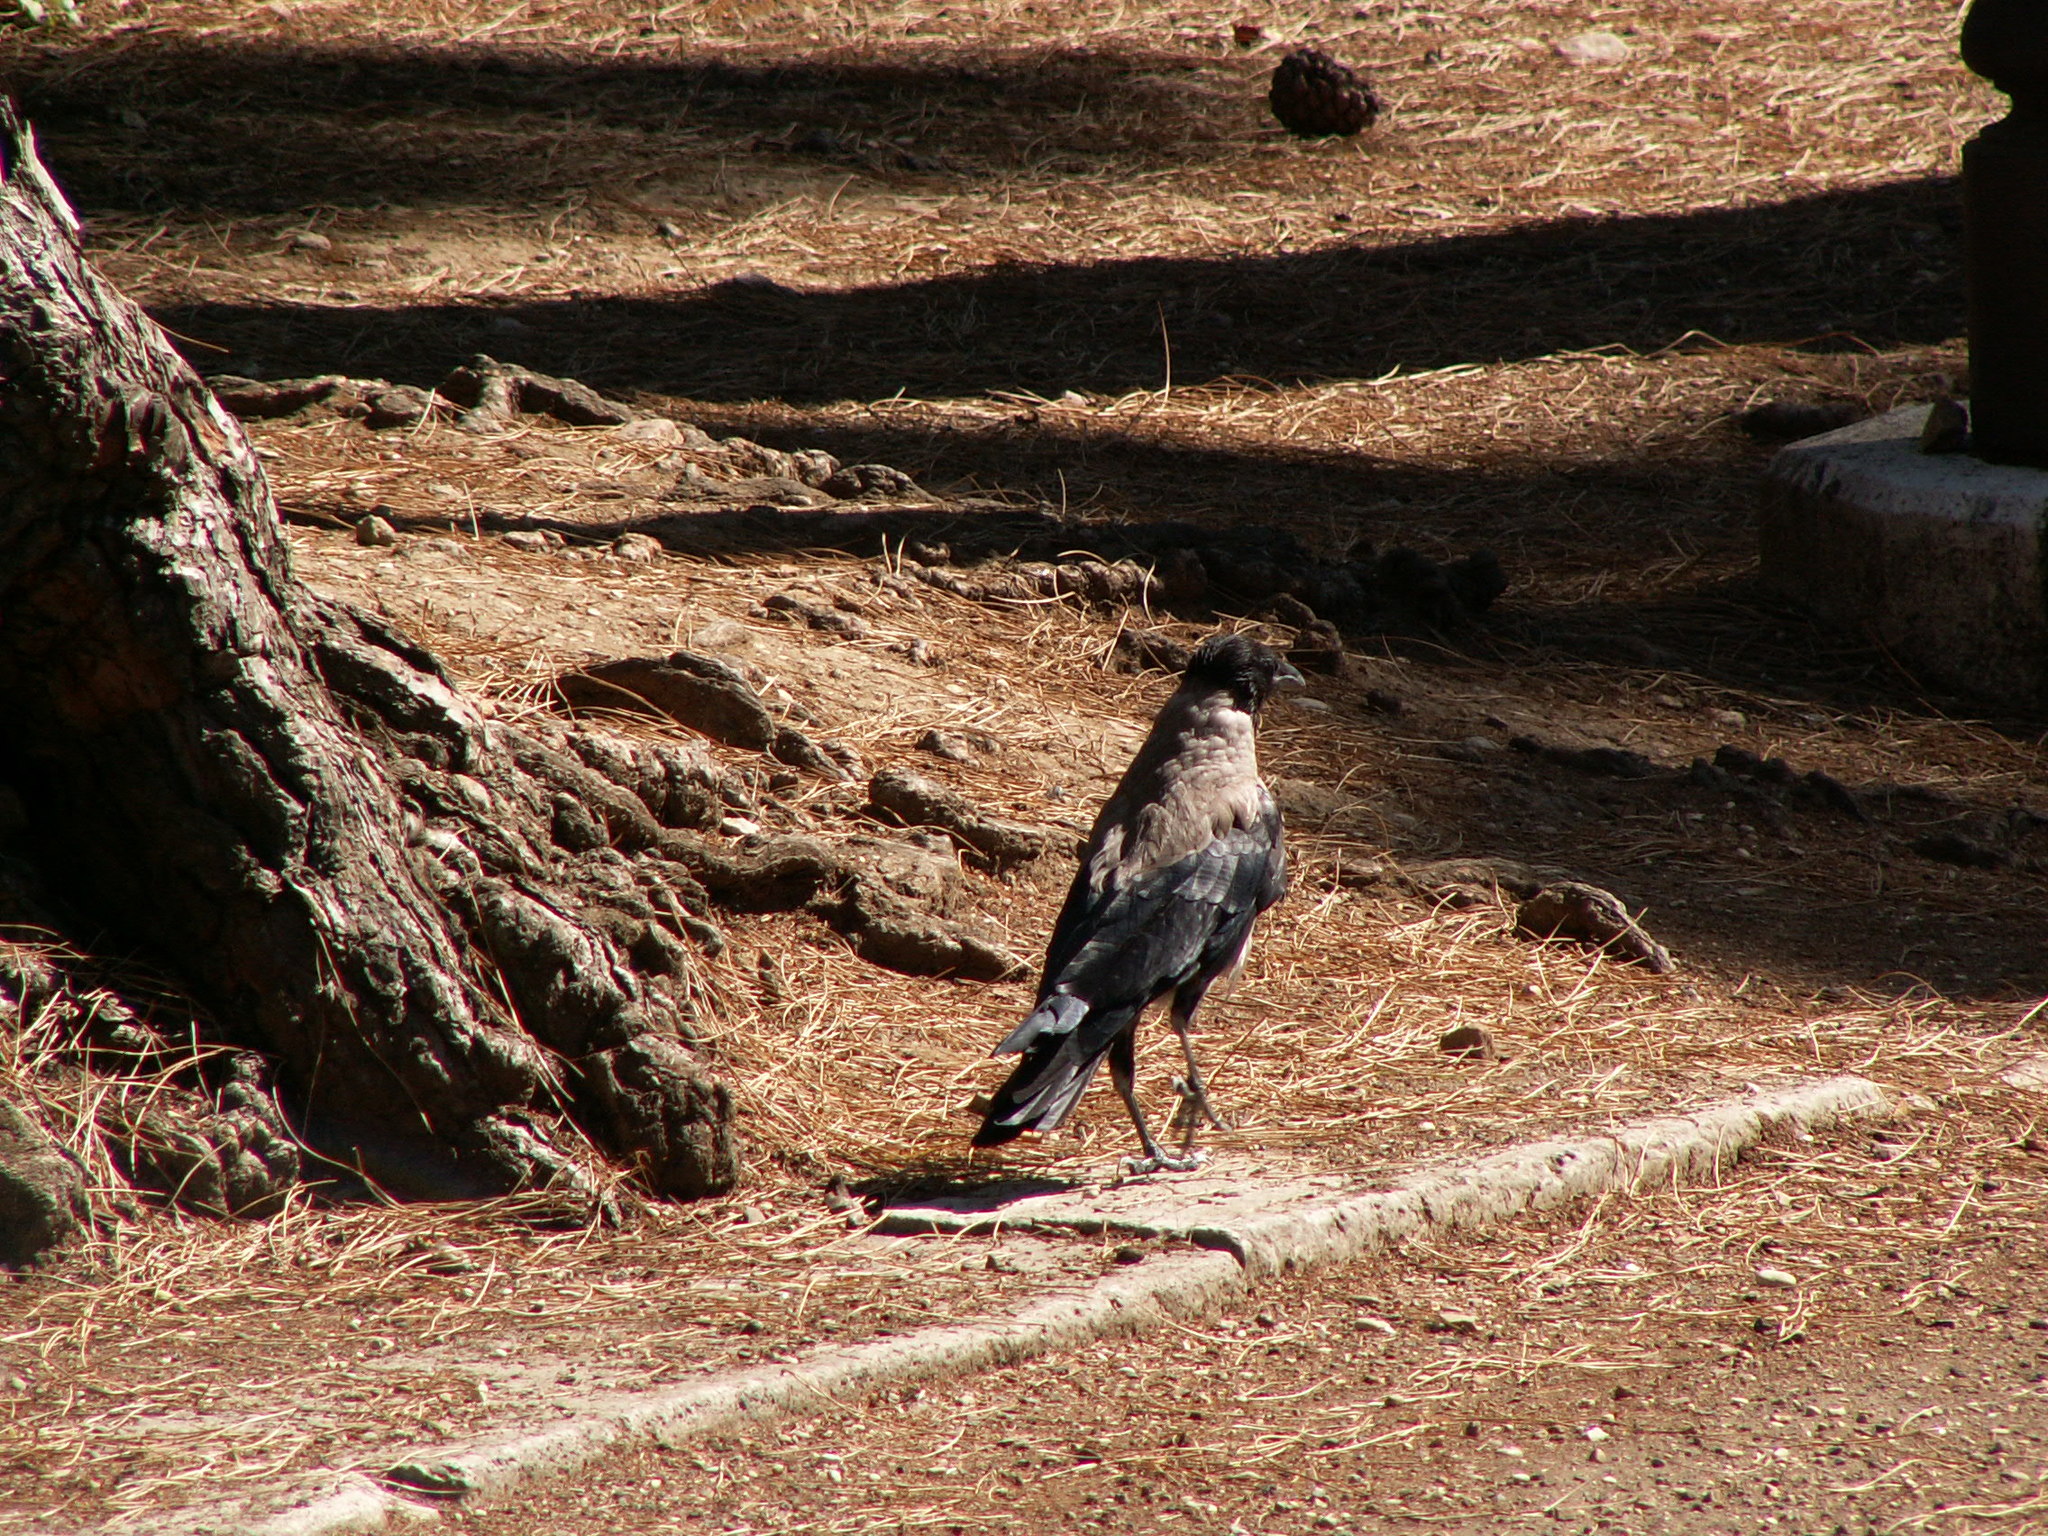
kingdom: Animalia
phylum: Chordata
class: Aves
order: Passeriformes
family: Corvidae
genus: Corvus
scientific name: Corvus cornix
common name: Hooded crow
